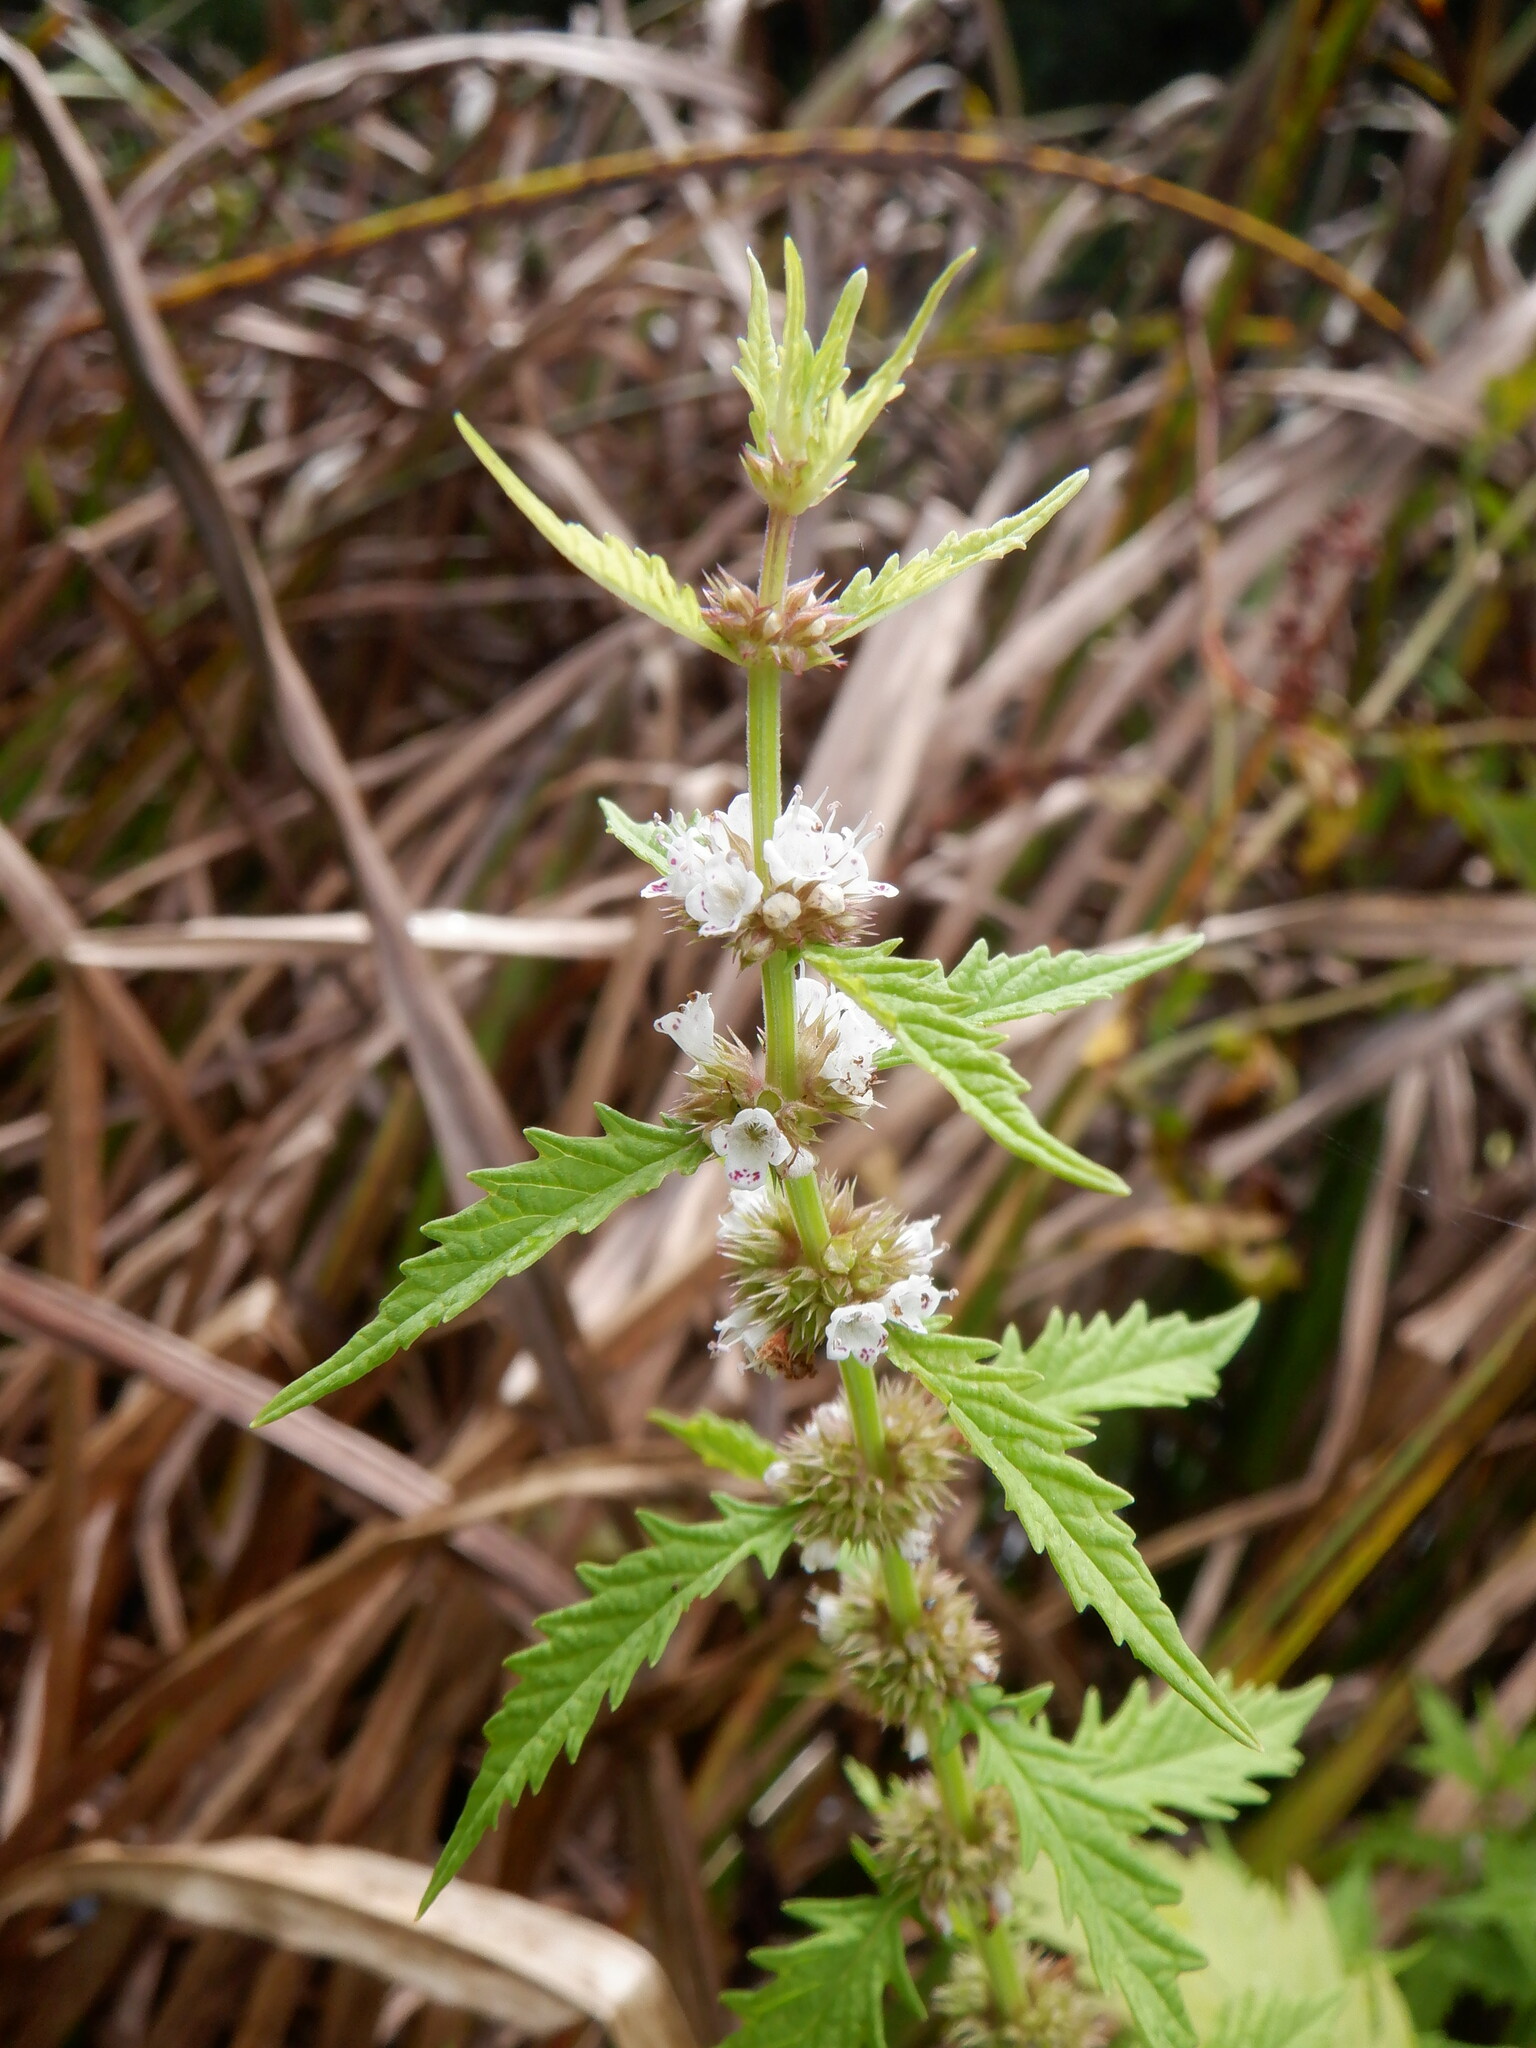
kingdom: Plantae
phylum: Tracheophyta
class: Magnoliopsida
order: Lamiales
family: Lamiaceae
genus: Lycopus
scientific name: Lycopus europaeus
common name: European bugleweed
